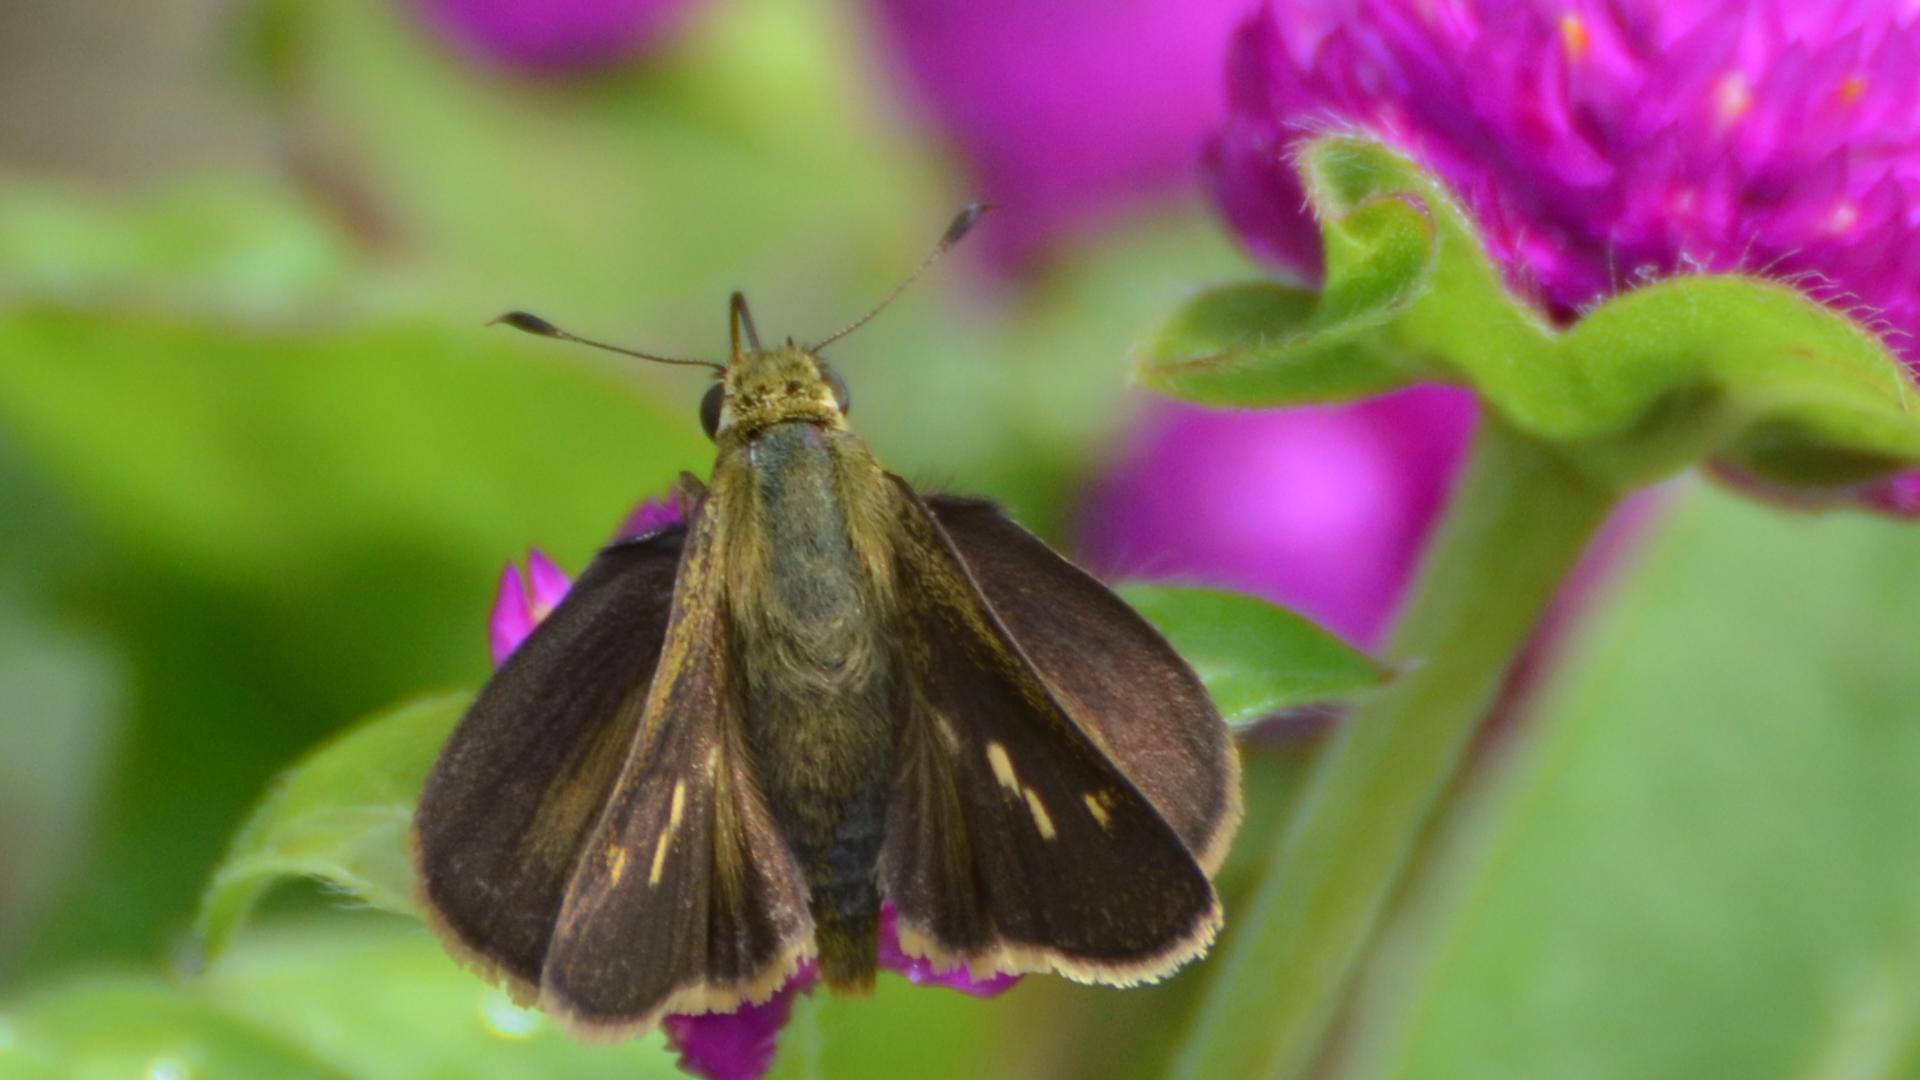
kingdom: Animalia
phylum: Arthropoda
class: Insecta
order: Lepidoptera
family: Hesperiidae
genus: Polites
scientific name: Polites egeremet
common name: Northern broken-dash
